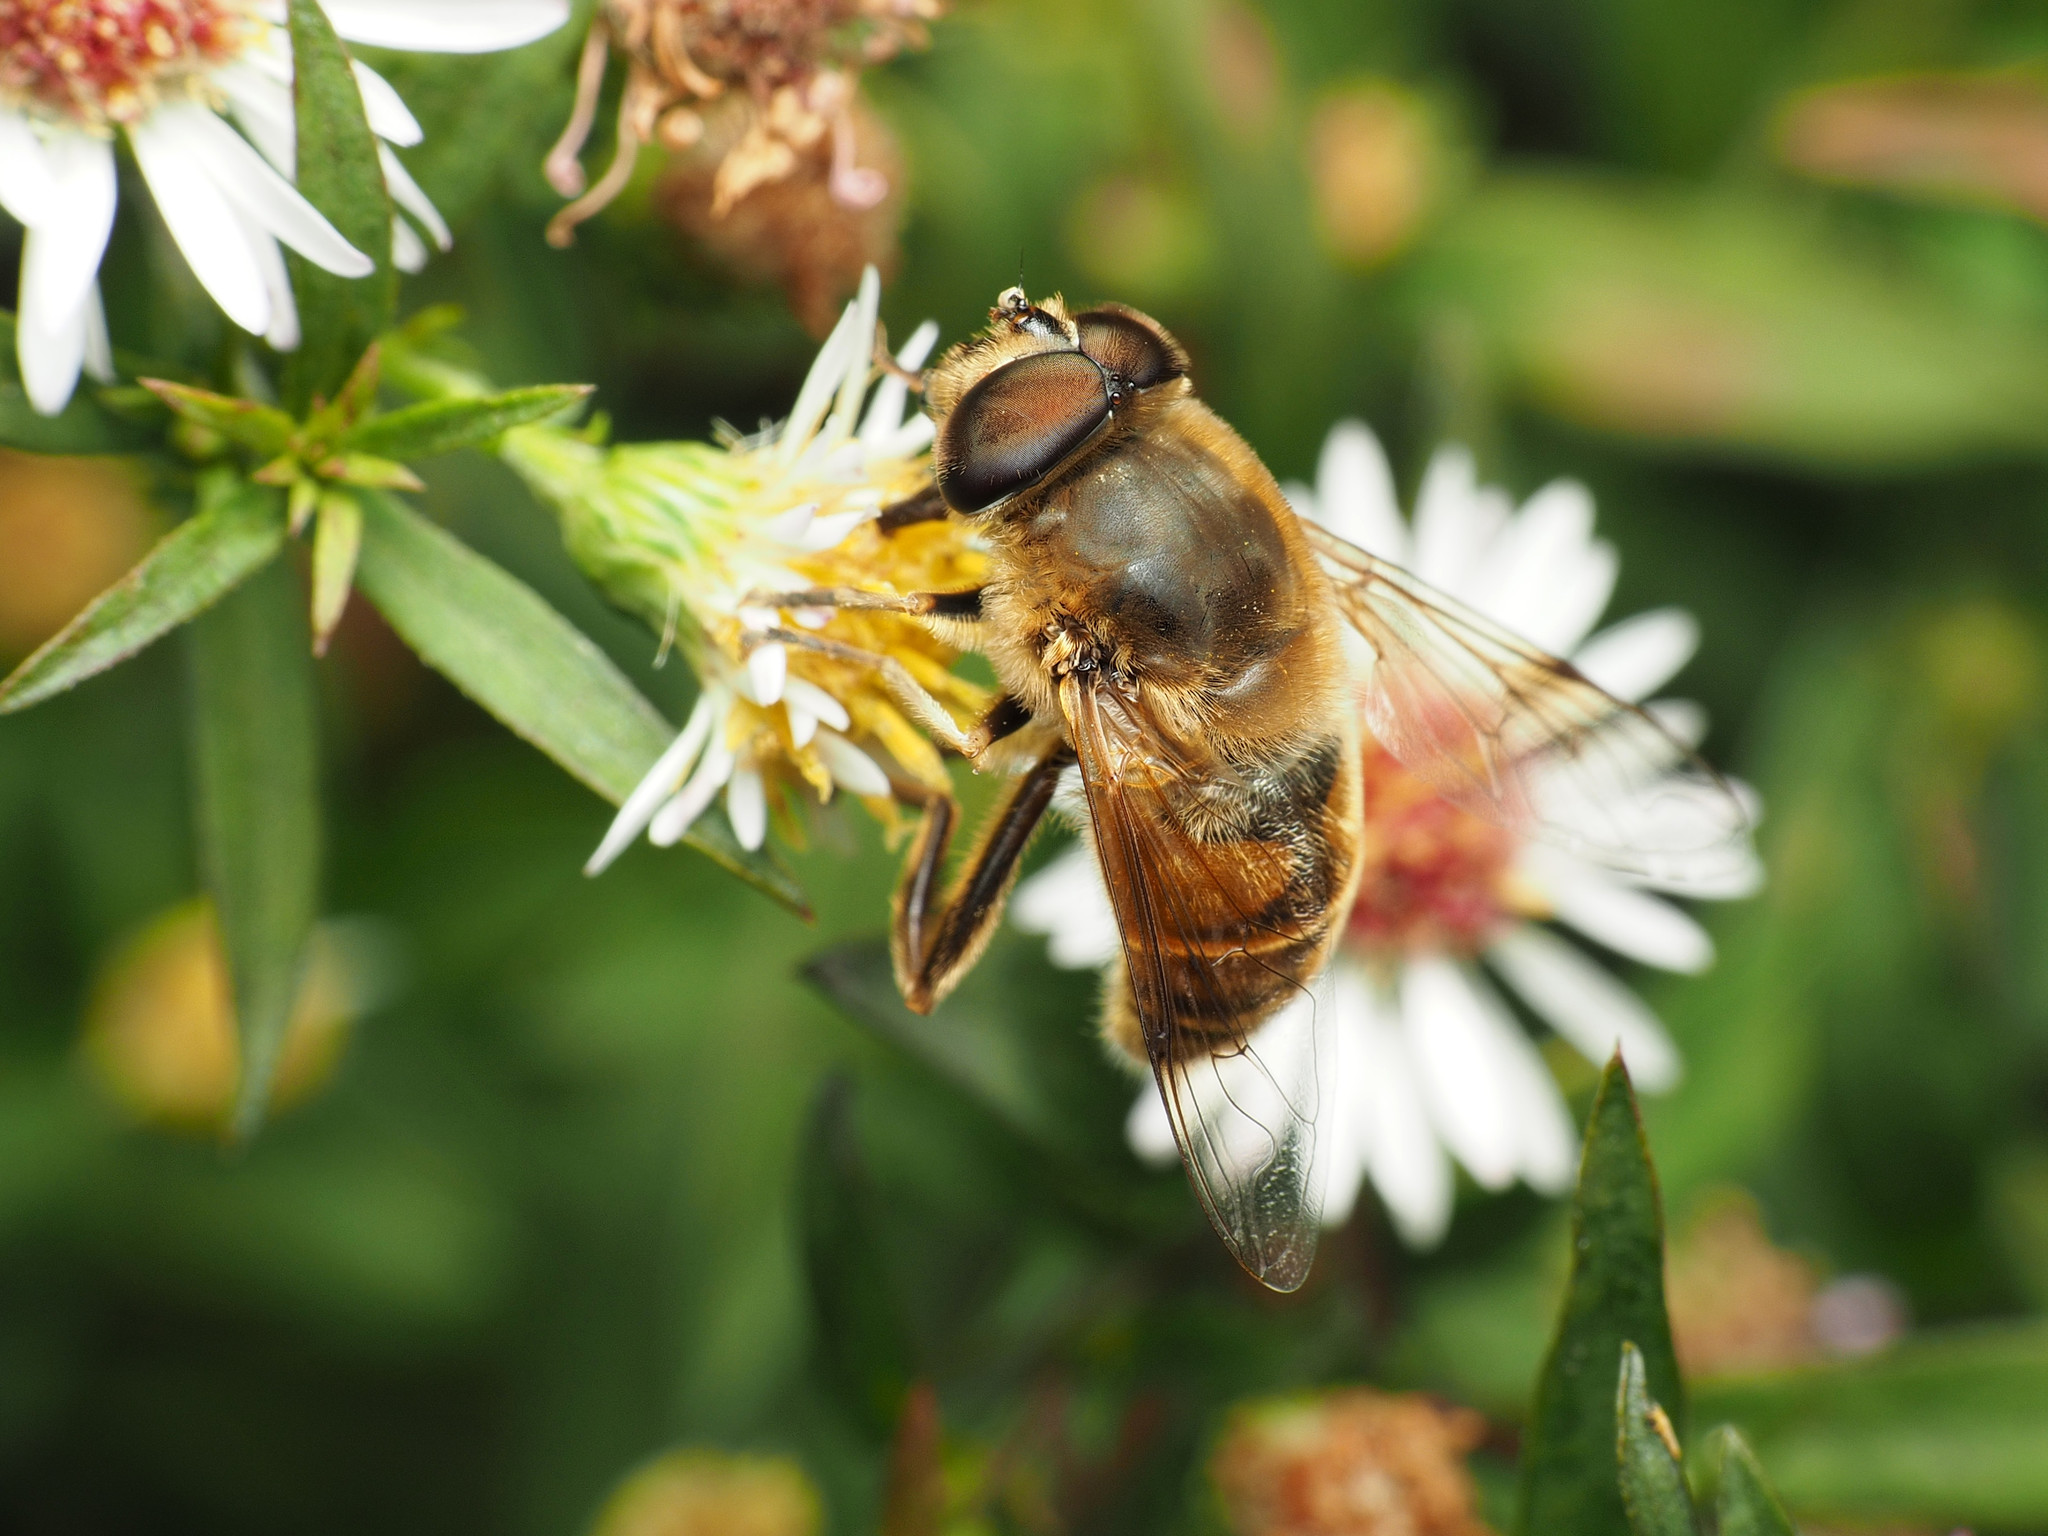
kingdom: Animalia
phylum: Arthropoda
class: Insecta
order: Diptera
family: Syrphidae
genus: Eristalis
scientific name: Eristalis tenax
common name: Drone fly
